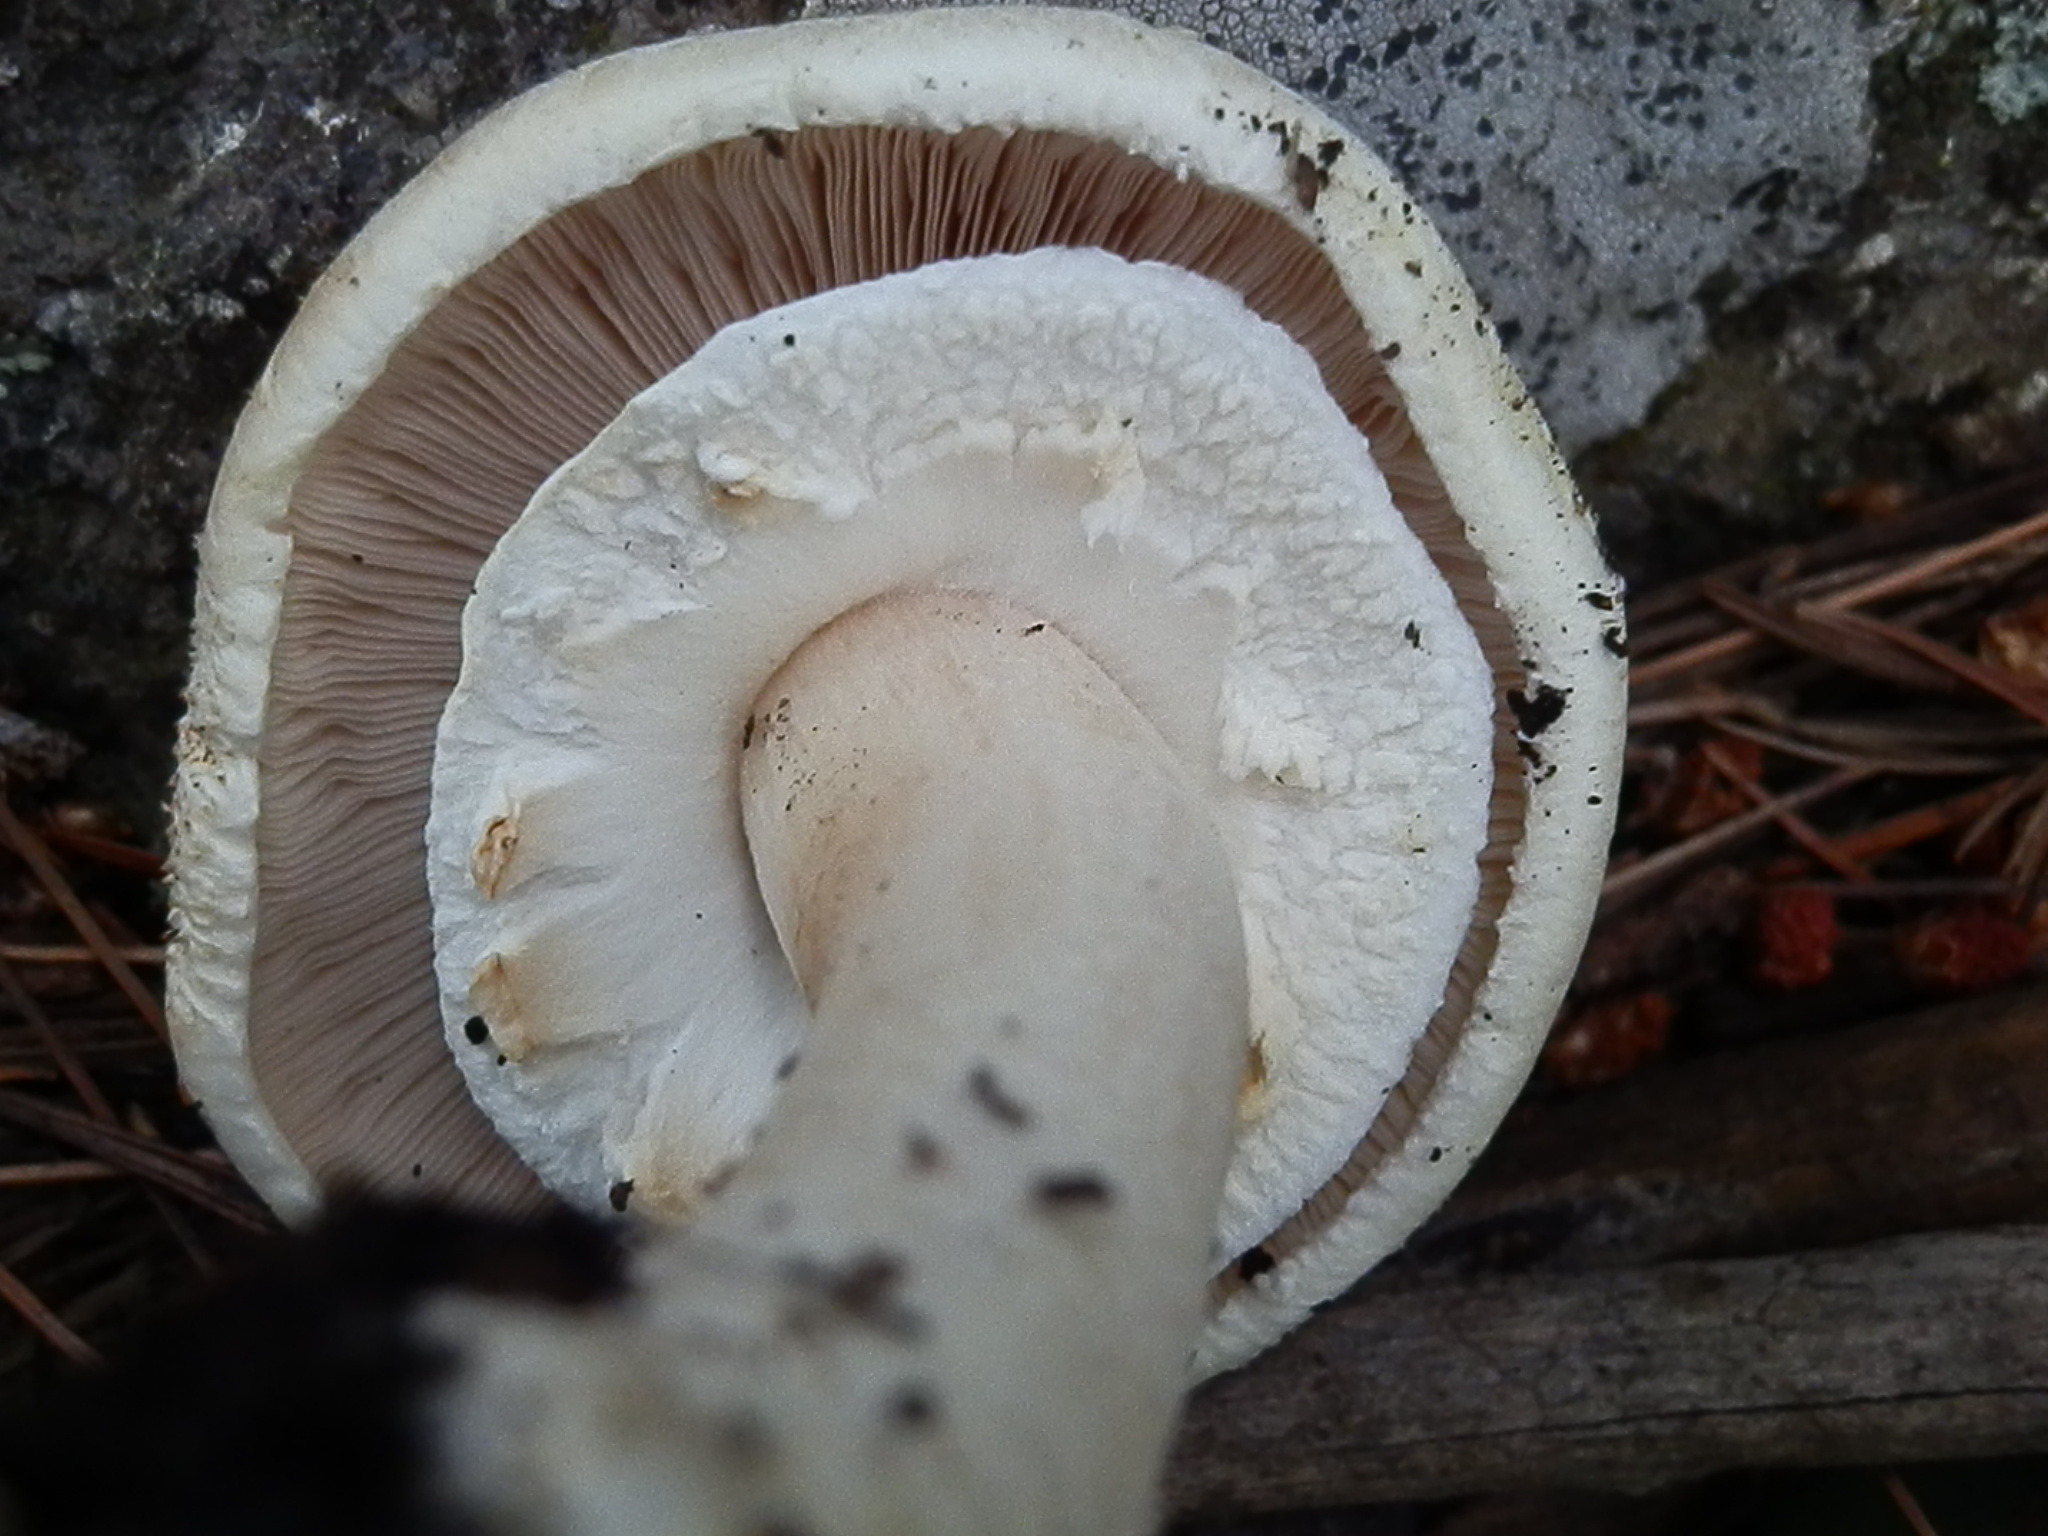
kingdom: Fungi
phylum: Basidiomycota
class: Agaricomycetes
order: Agaricales
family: Agaricaceae
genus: Agaricus
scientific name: Agaricus didymus
